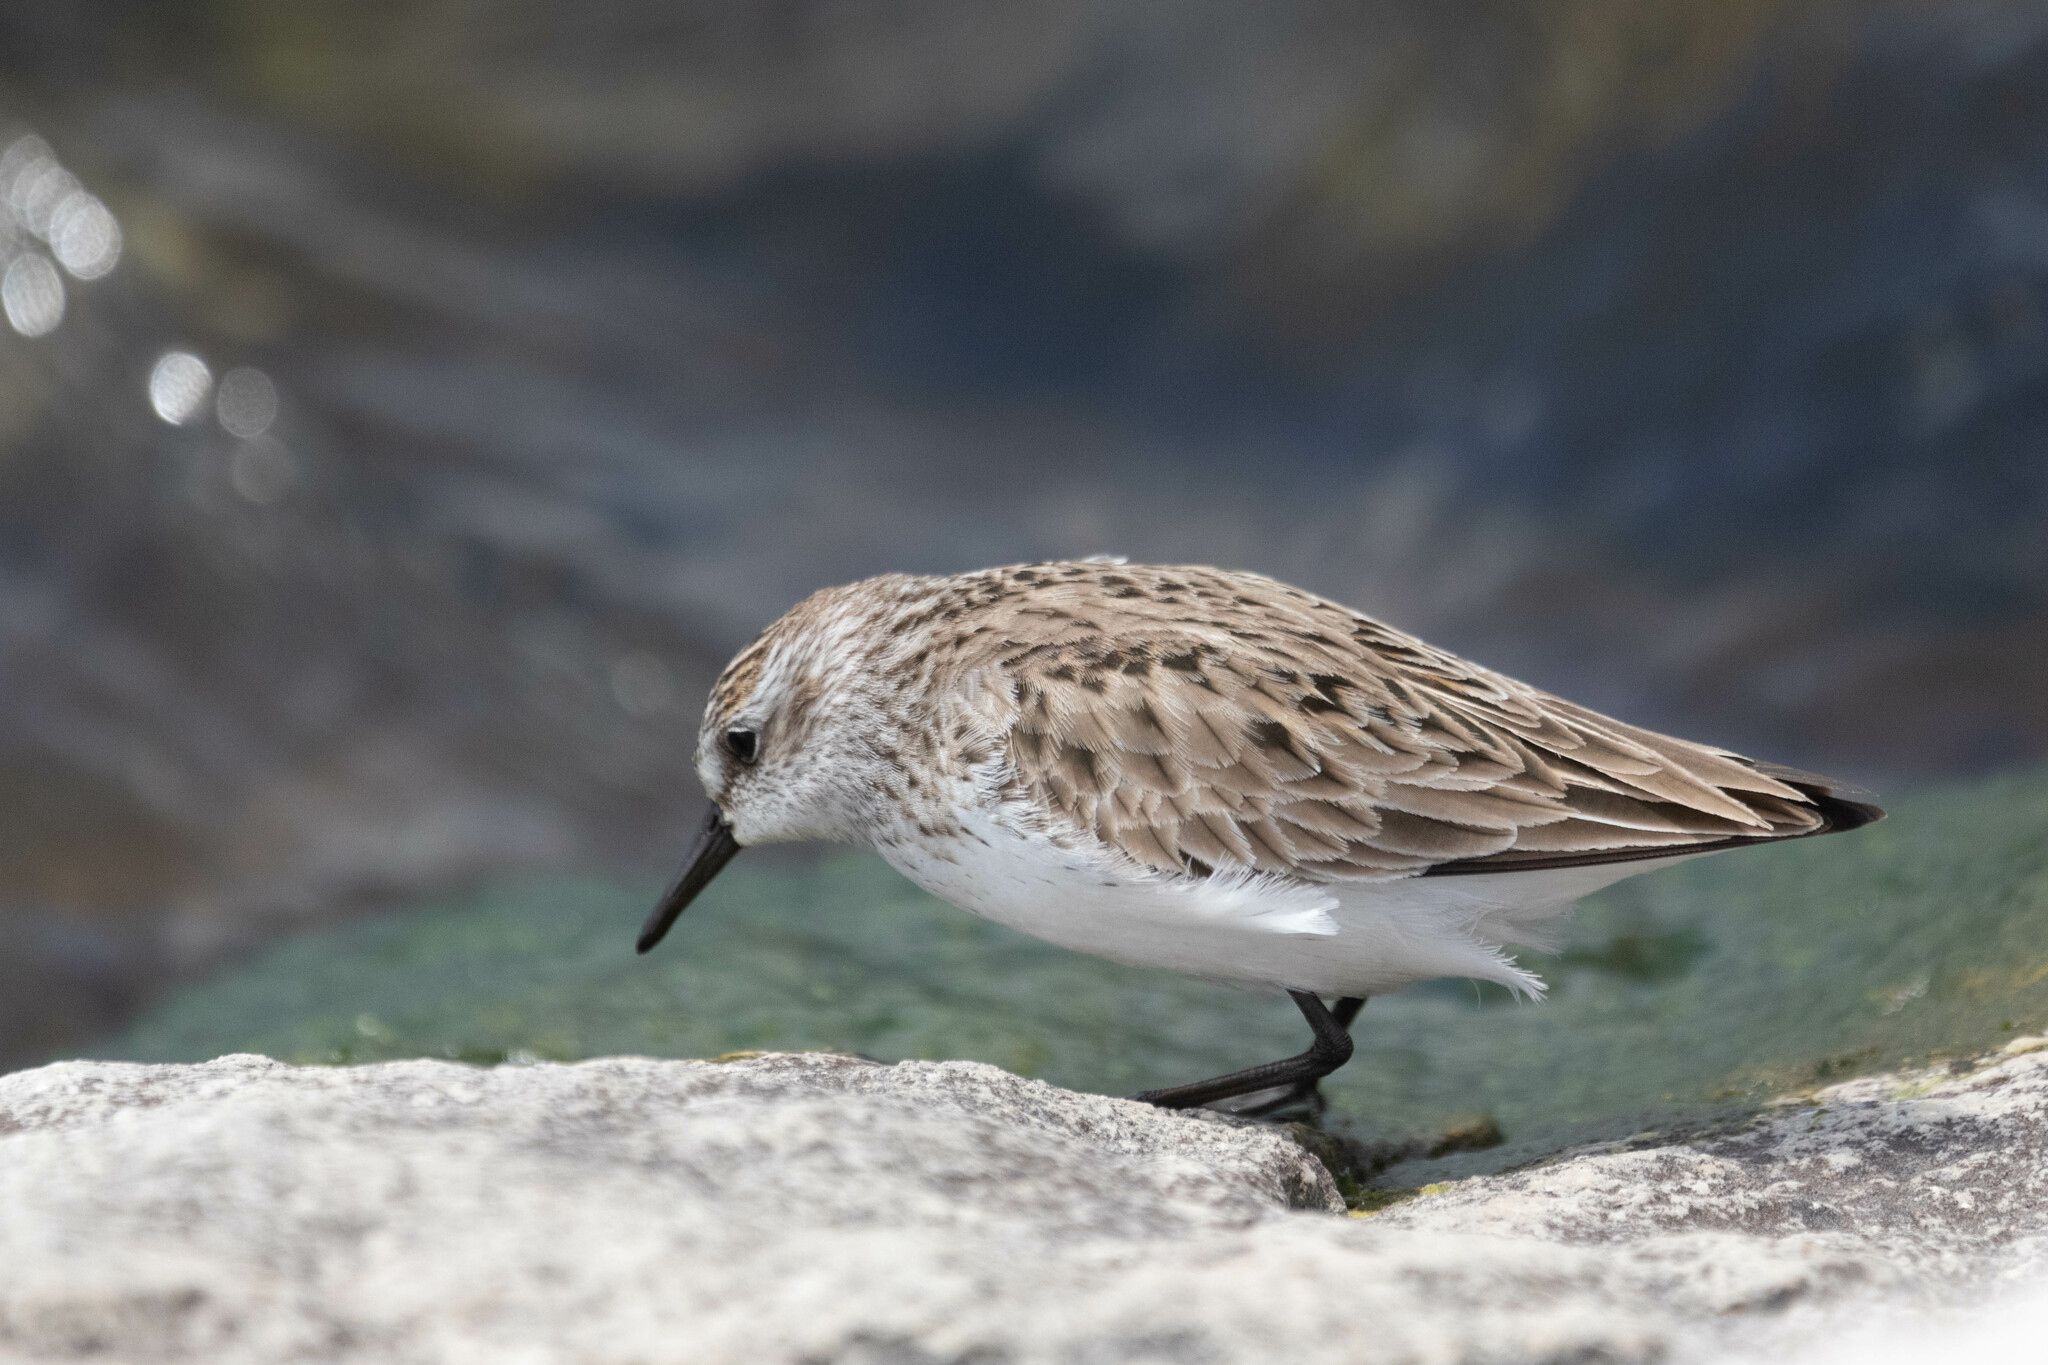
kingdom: Animalia
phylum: Chordata
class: Aves
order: Charadriiformes
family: Scolopacidae
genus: Calidris
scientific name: Calidris pusilla
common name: Semipalmated sandpiper
